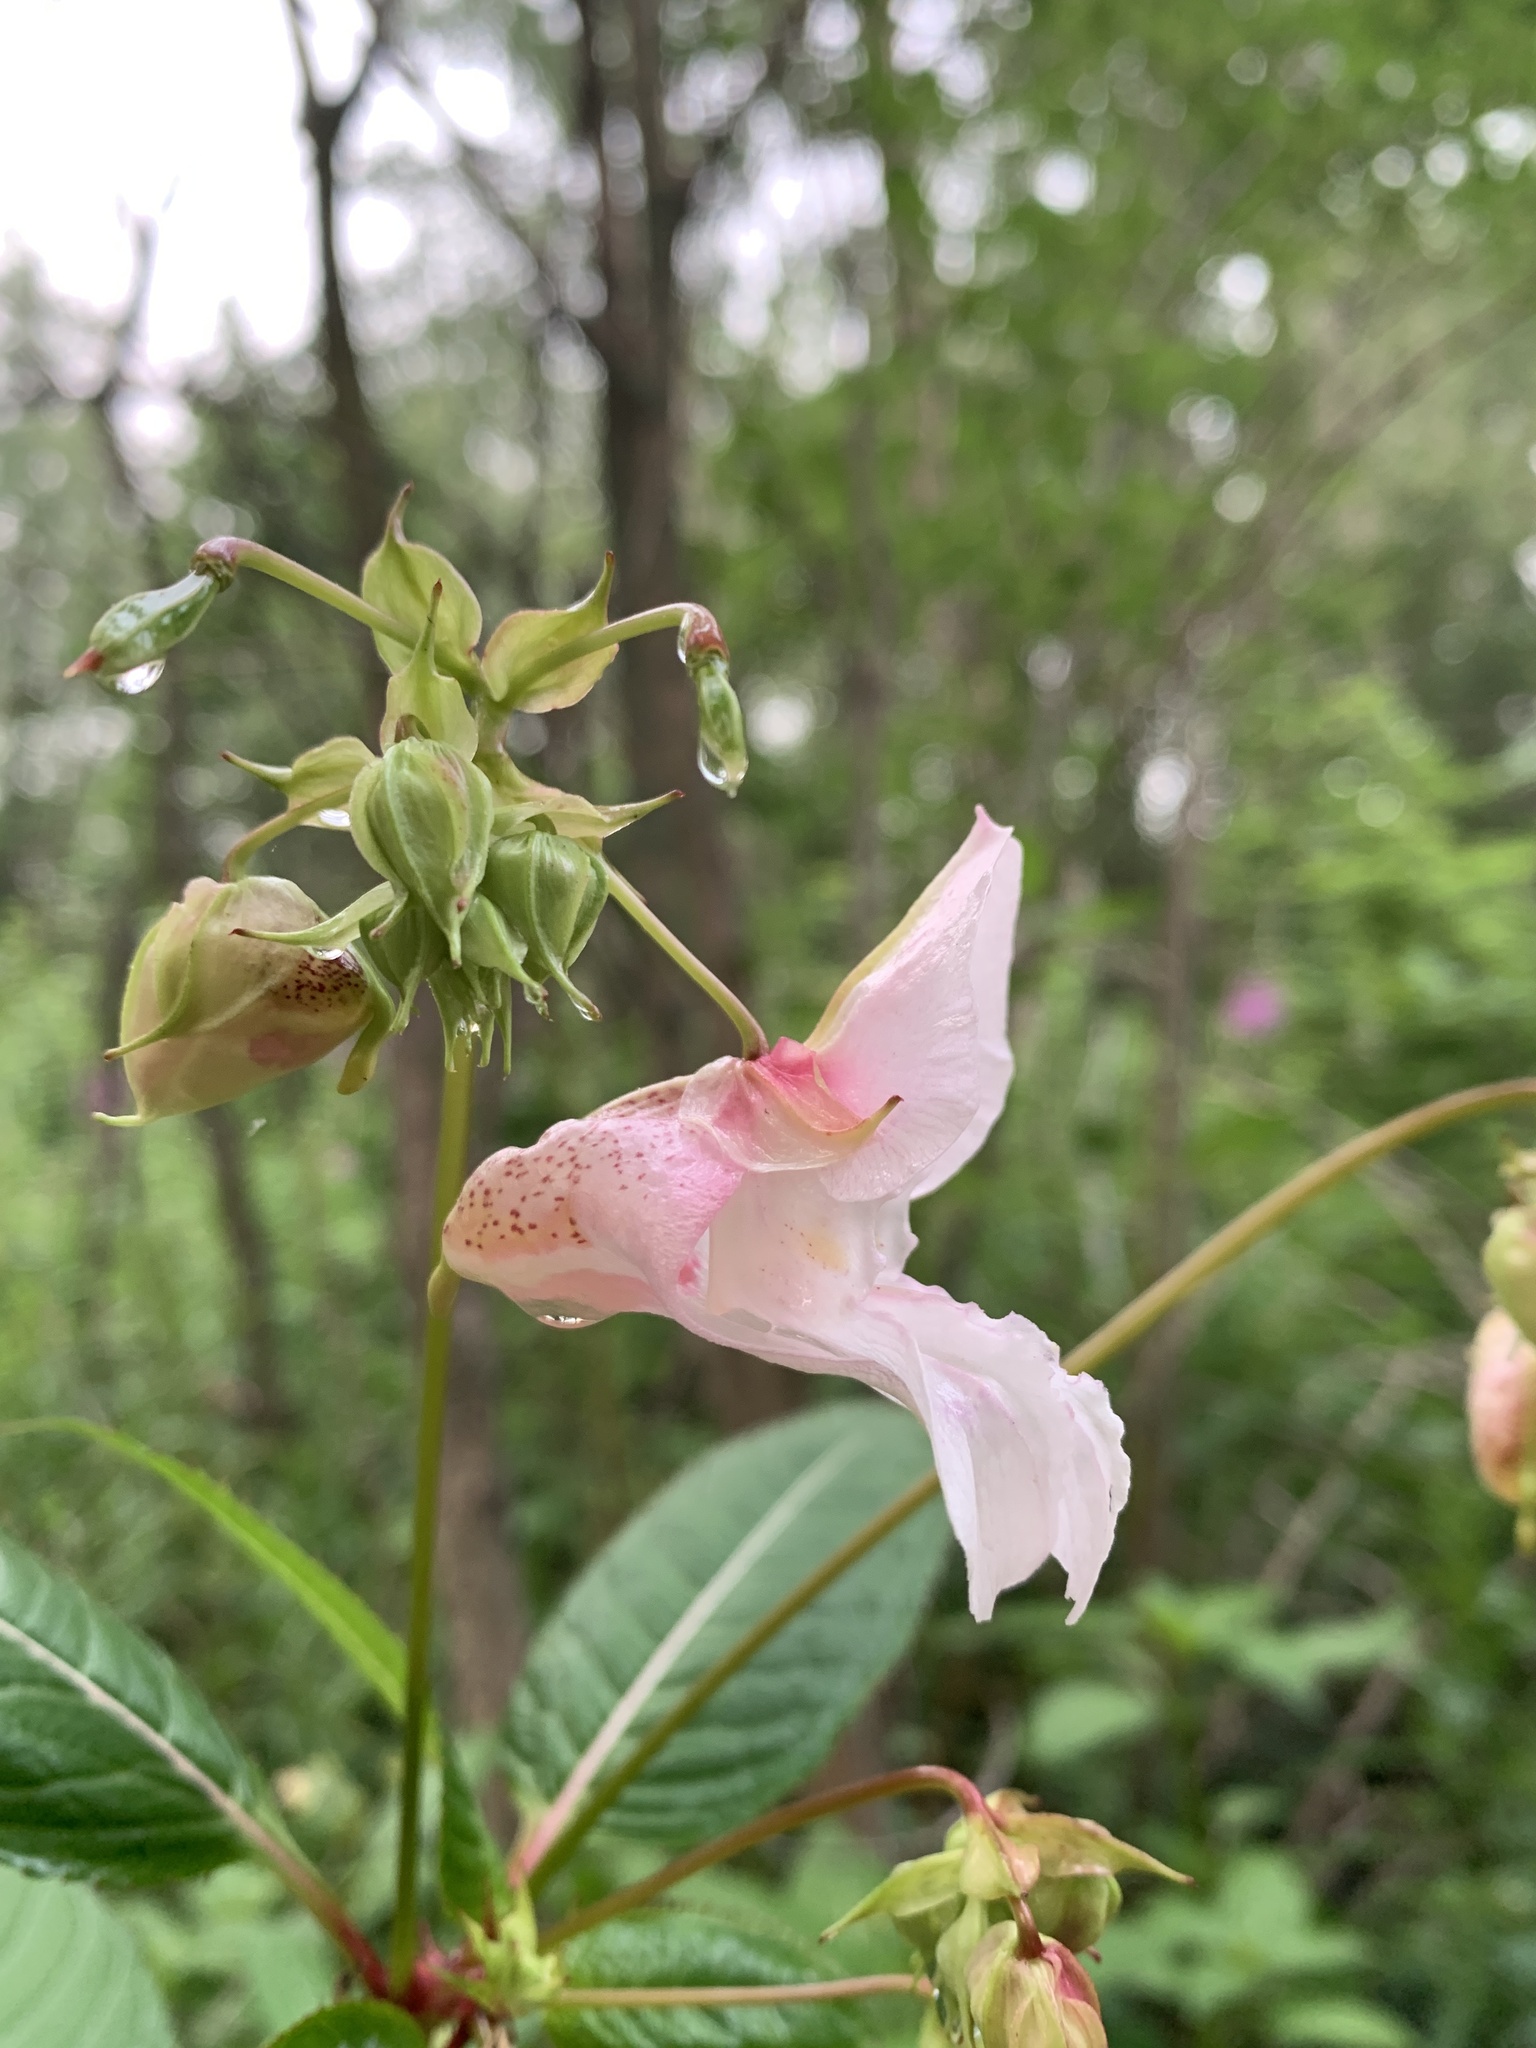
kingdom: Plantae
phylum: Tracheophyta
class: Magnoliopsida
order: Ericales
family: Balsaminaceae
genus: Impatiens
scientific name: Impatiens glandulifera
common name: Himalayan balsam
